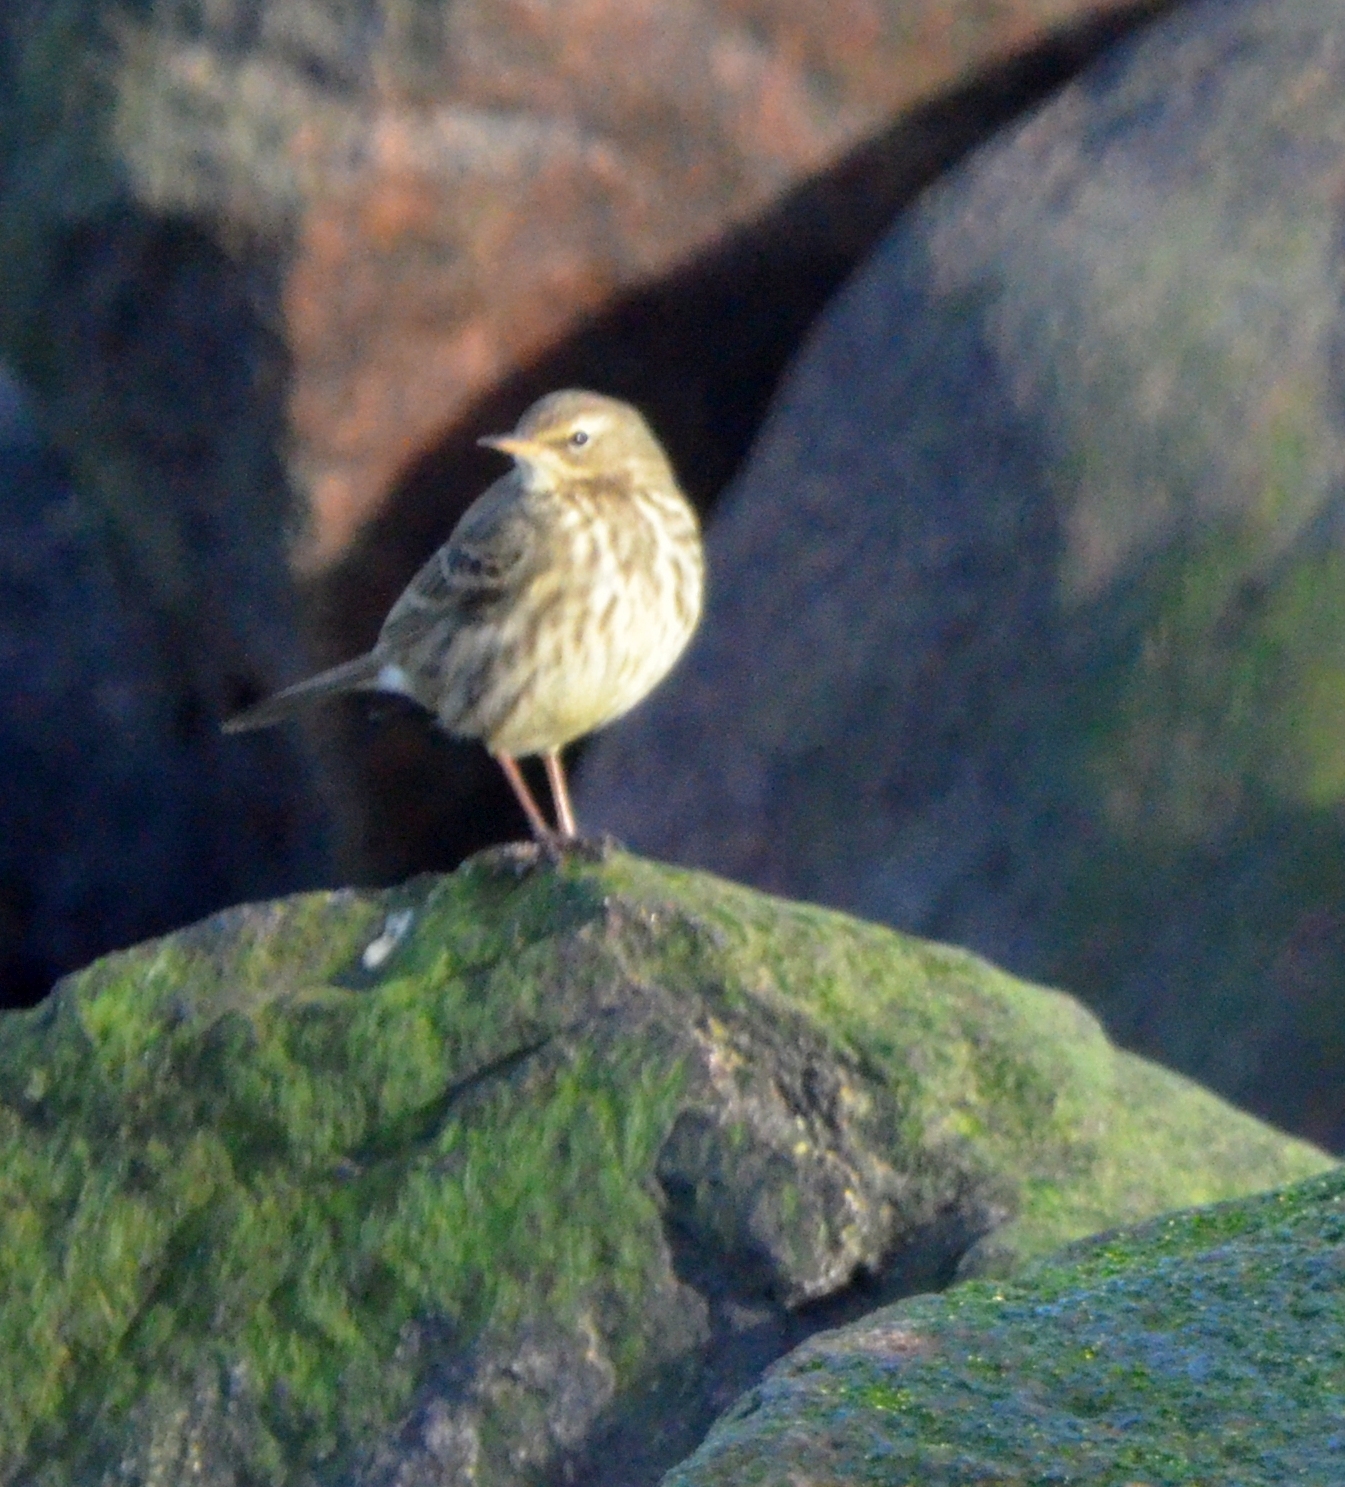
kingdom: Animalia
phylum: Chordata
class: Aves
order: Passeriformes
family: Motacillidae
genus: Anthus
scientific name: Anthus spinoletta
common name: Water pipit
